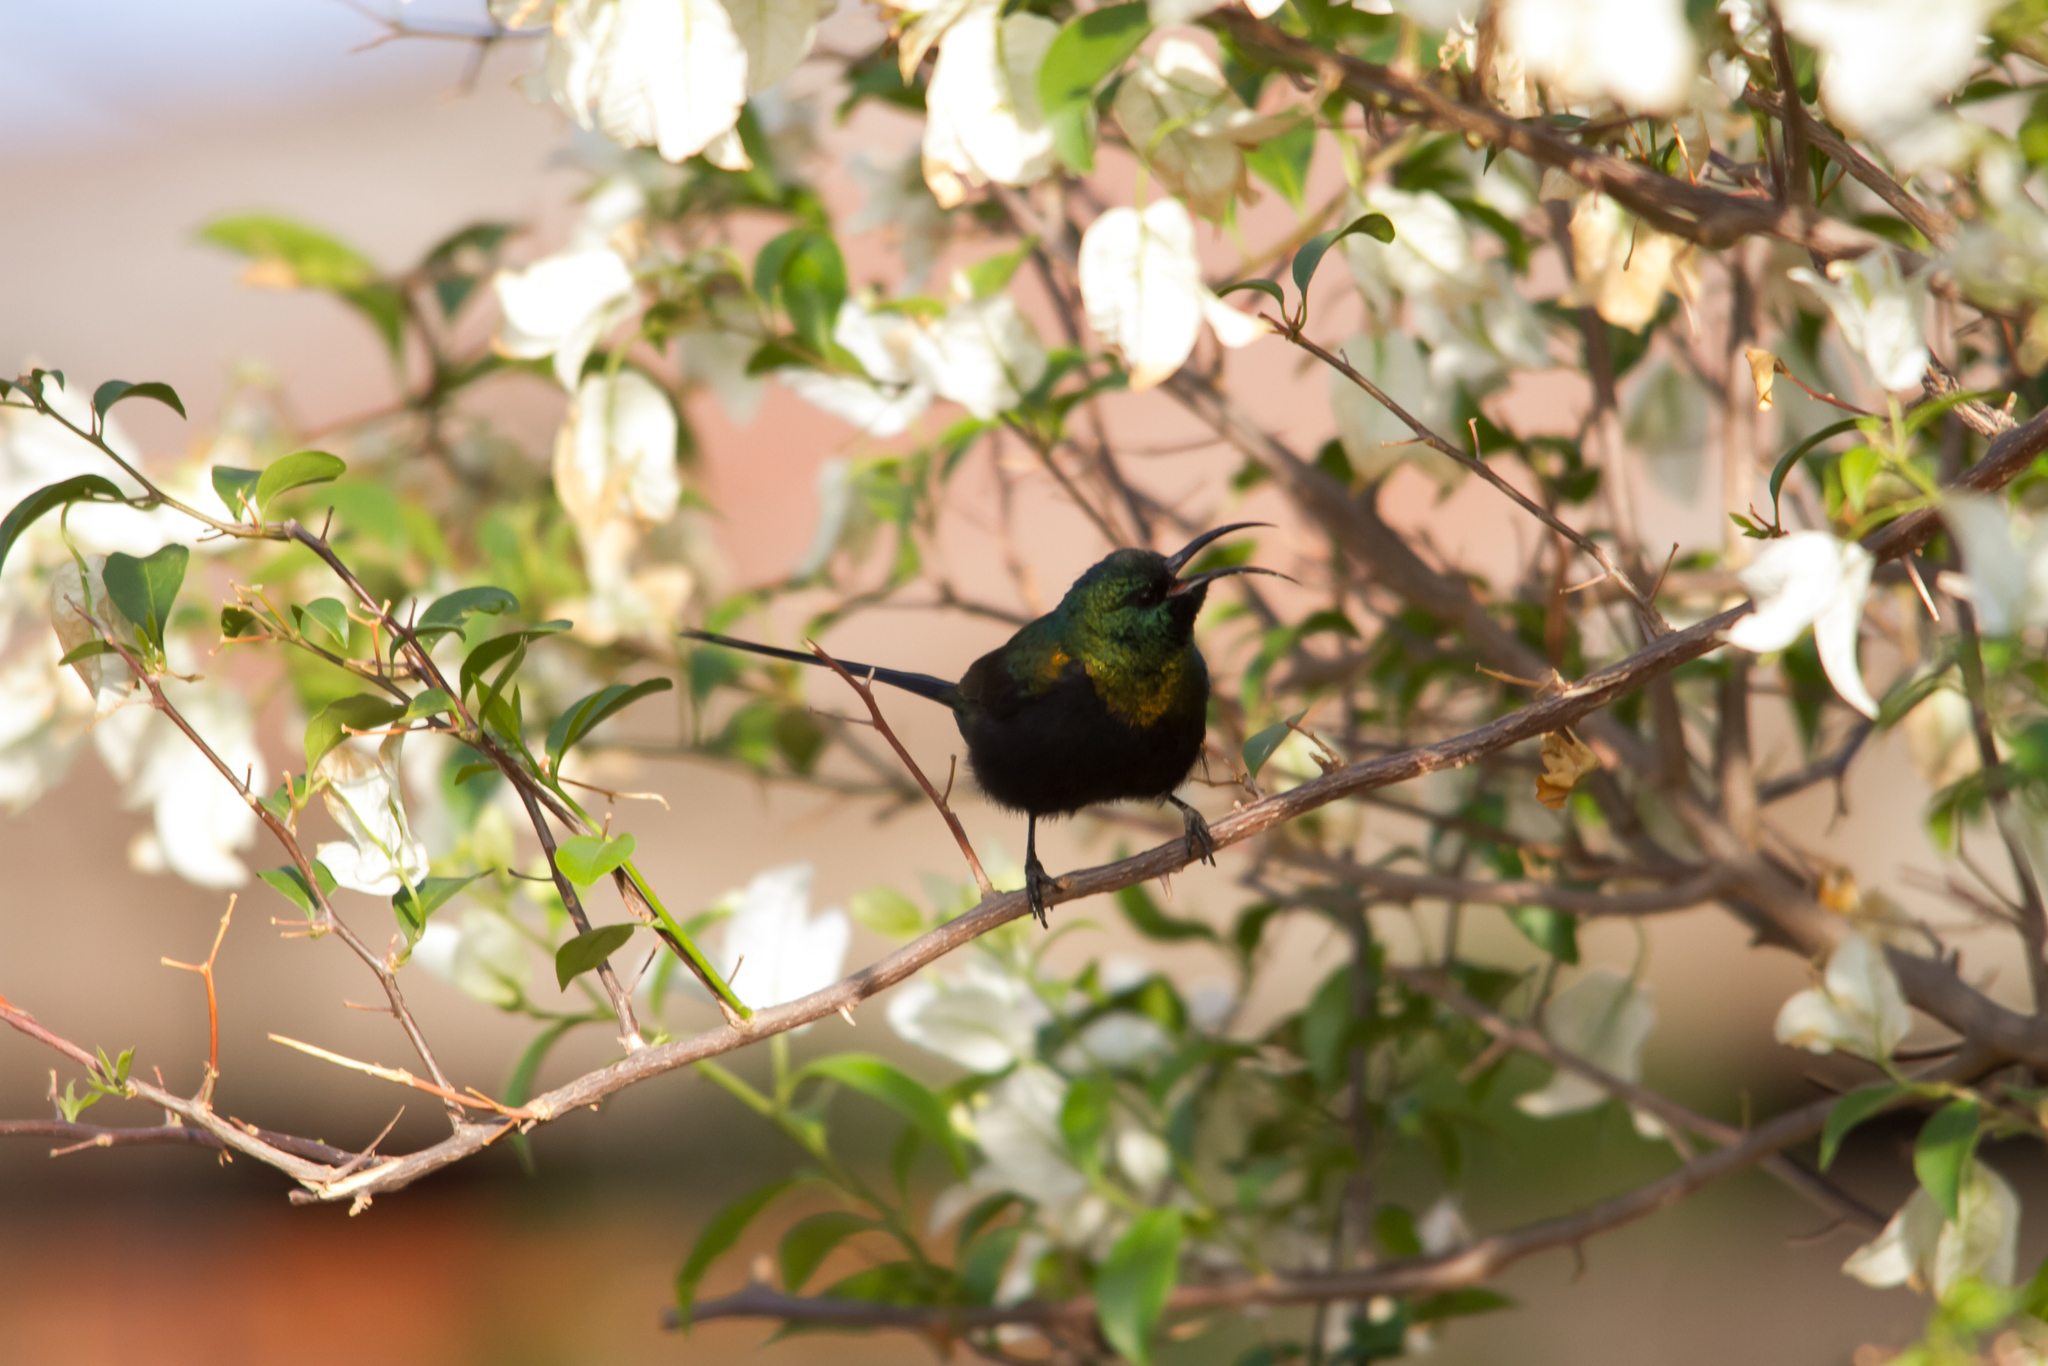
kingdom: Animalia
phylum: Chordata
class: Aves
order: Passeriformes
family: Nectariniidae
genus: Nectarinia
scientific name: Nectarinia kilimensis
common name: Bronzy sunbird
